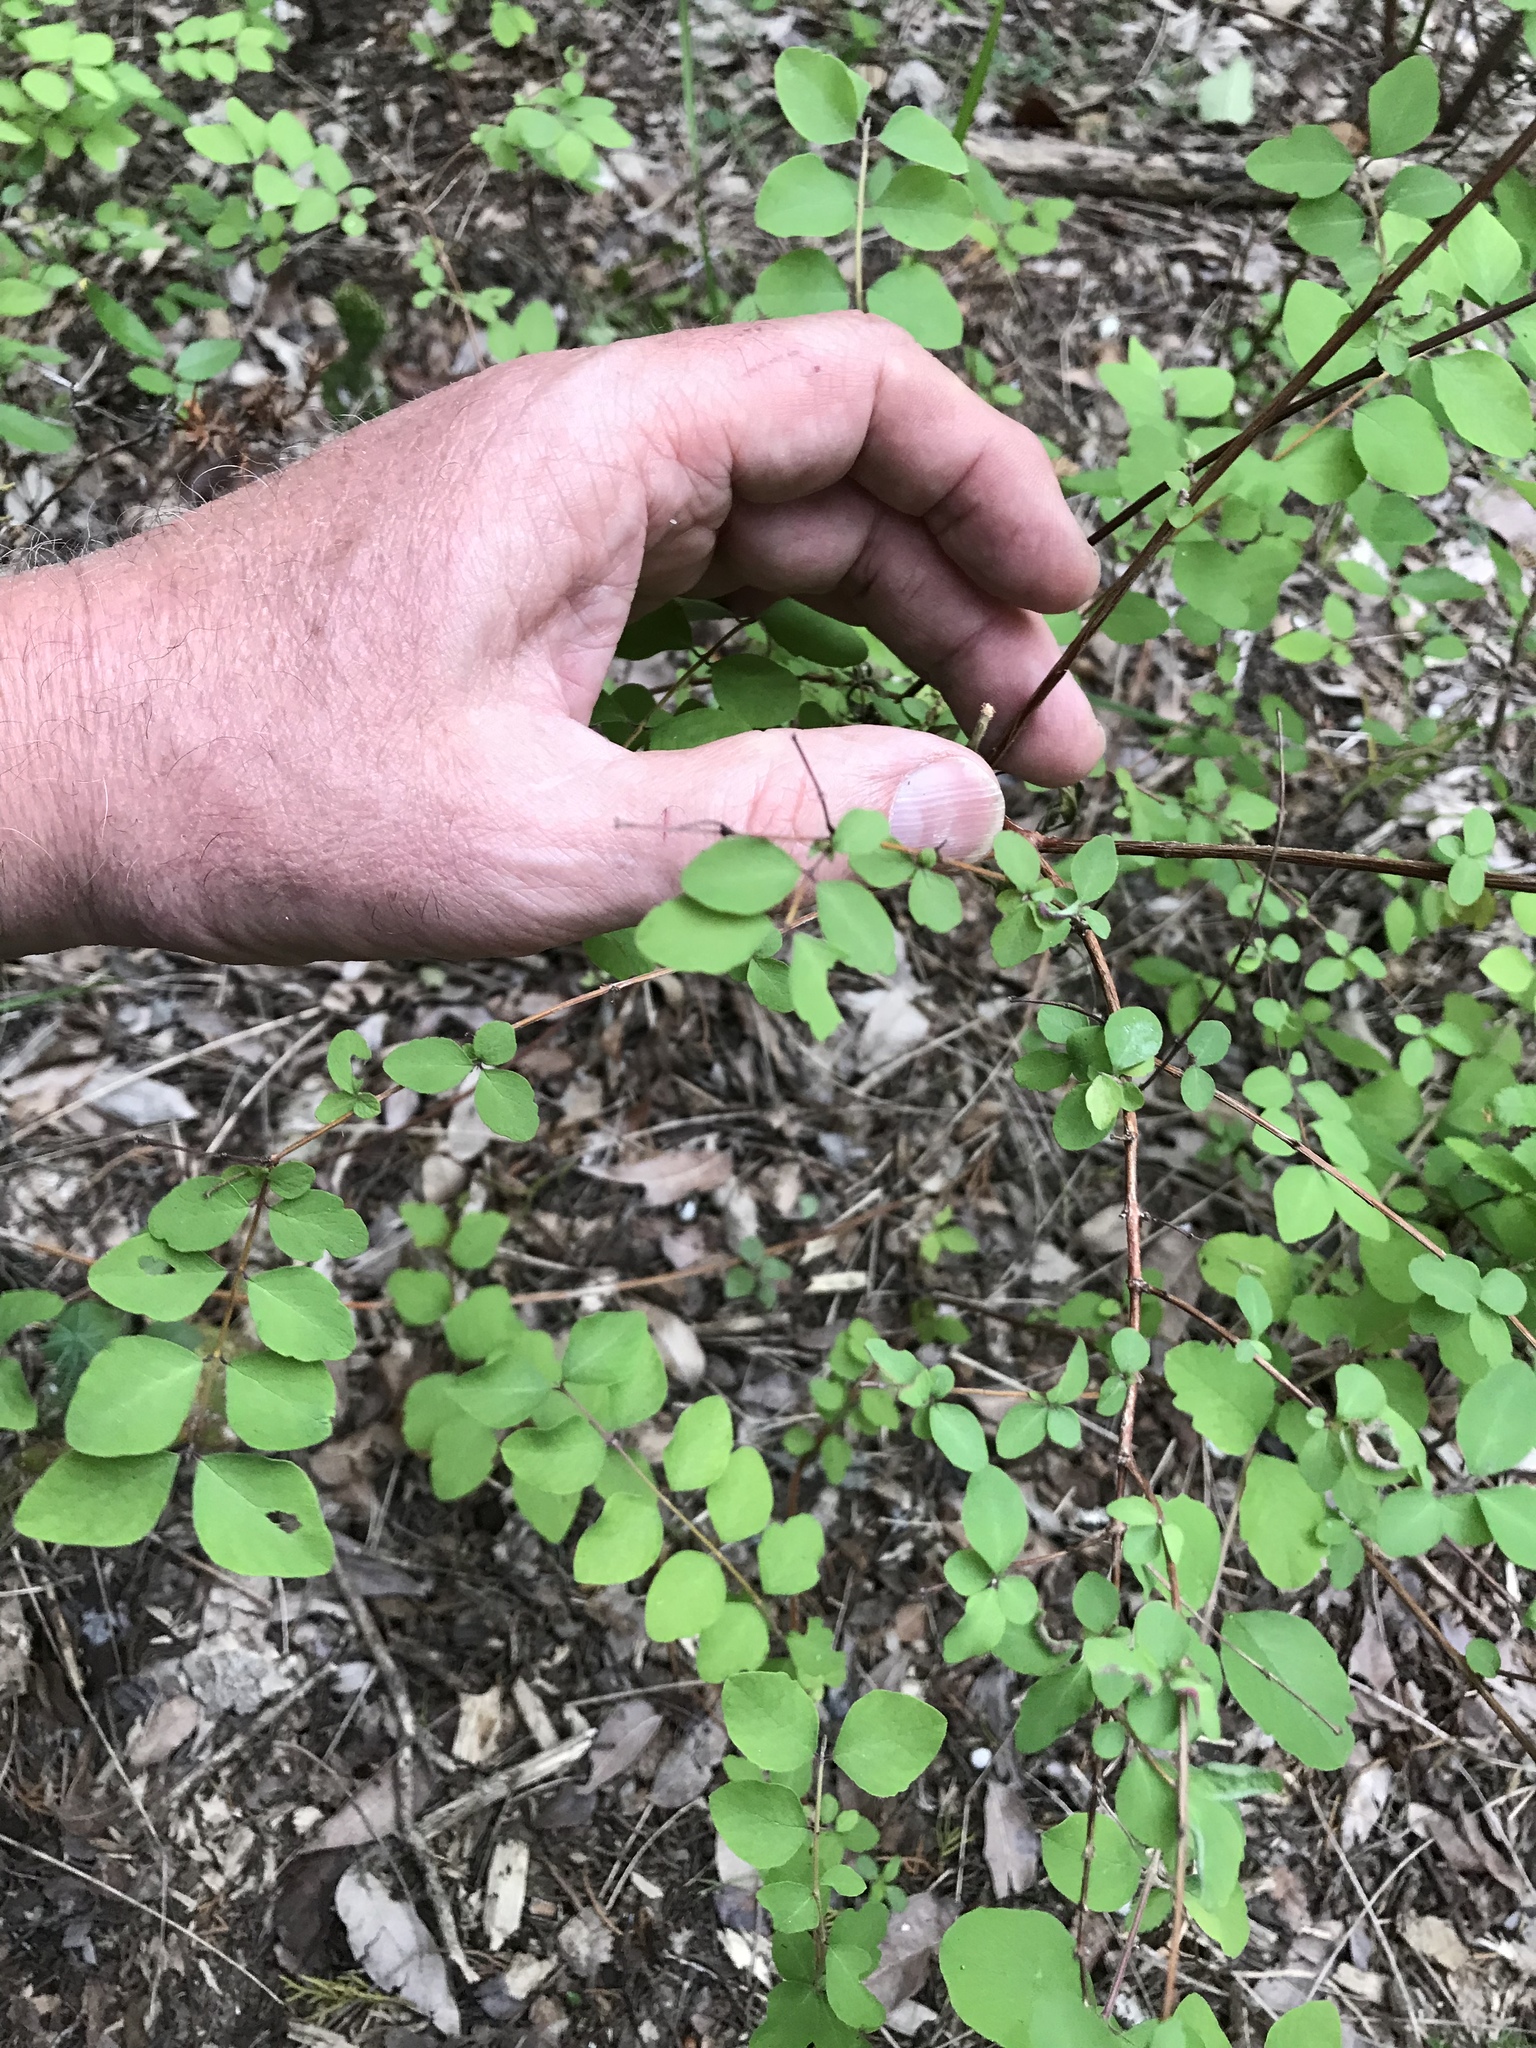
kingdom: Plantae
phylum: Tracheophyta
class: Magnoliopsida
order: Dipsacales
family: Caprifoliaceae
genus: Symphoricarpos
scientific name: Symphoricarpos orbiculatus
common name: Coralberry
